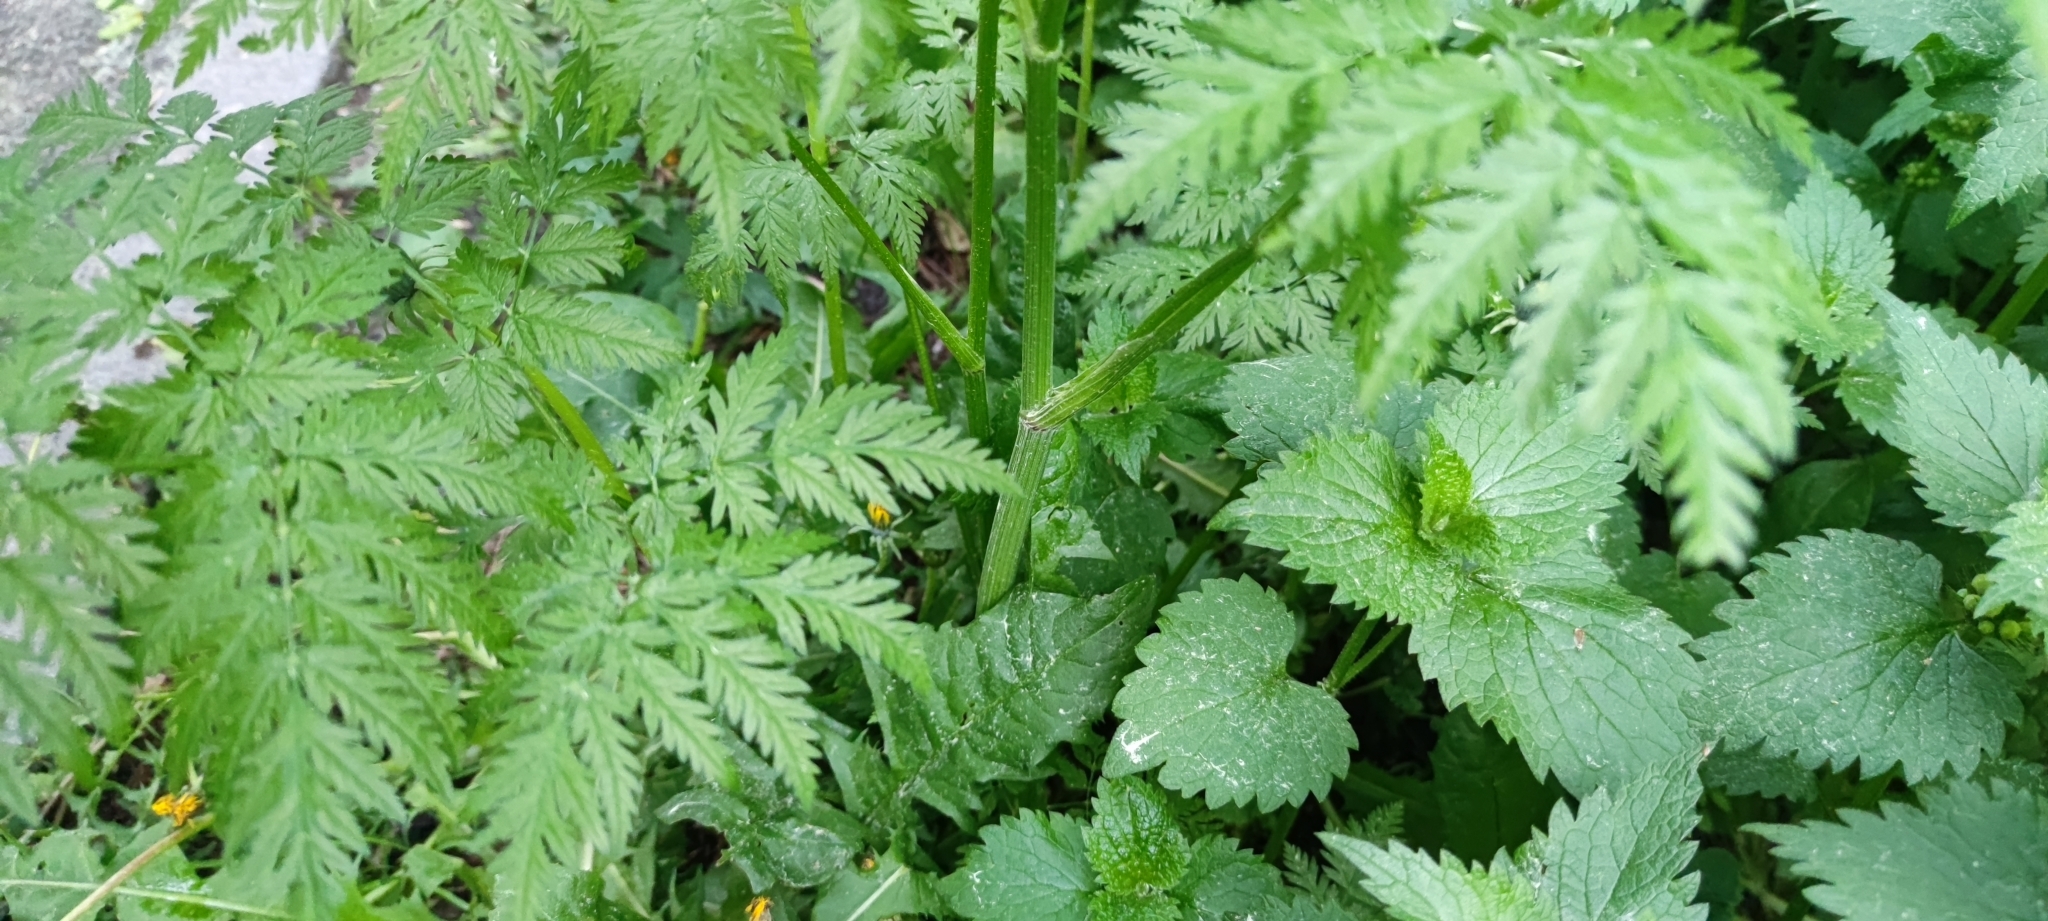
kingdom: Plantae
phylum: Tracheophyta
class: Magnoliopsida
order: Apiales
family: Apiaceae
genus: Anthriscus
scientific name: Anthriscus sylvestris
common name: Cow parsley
